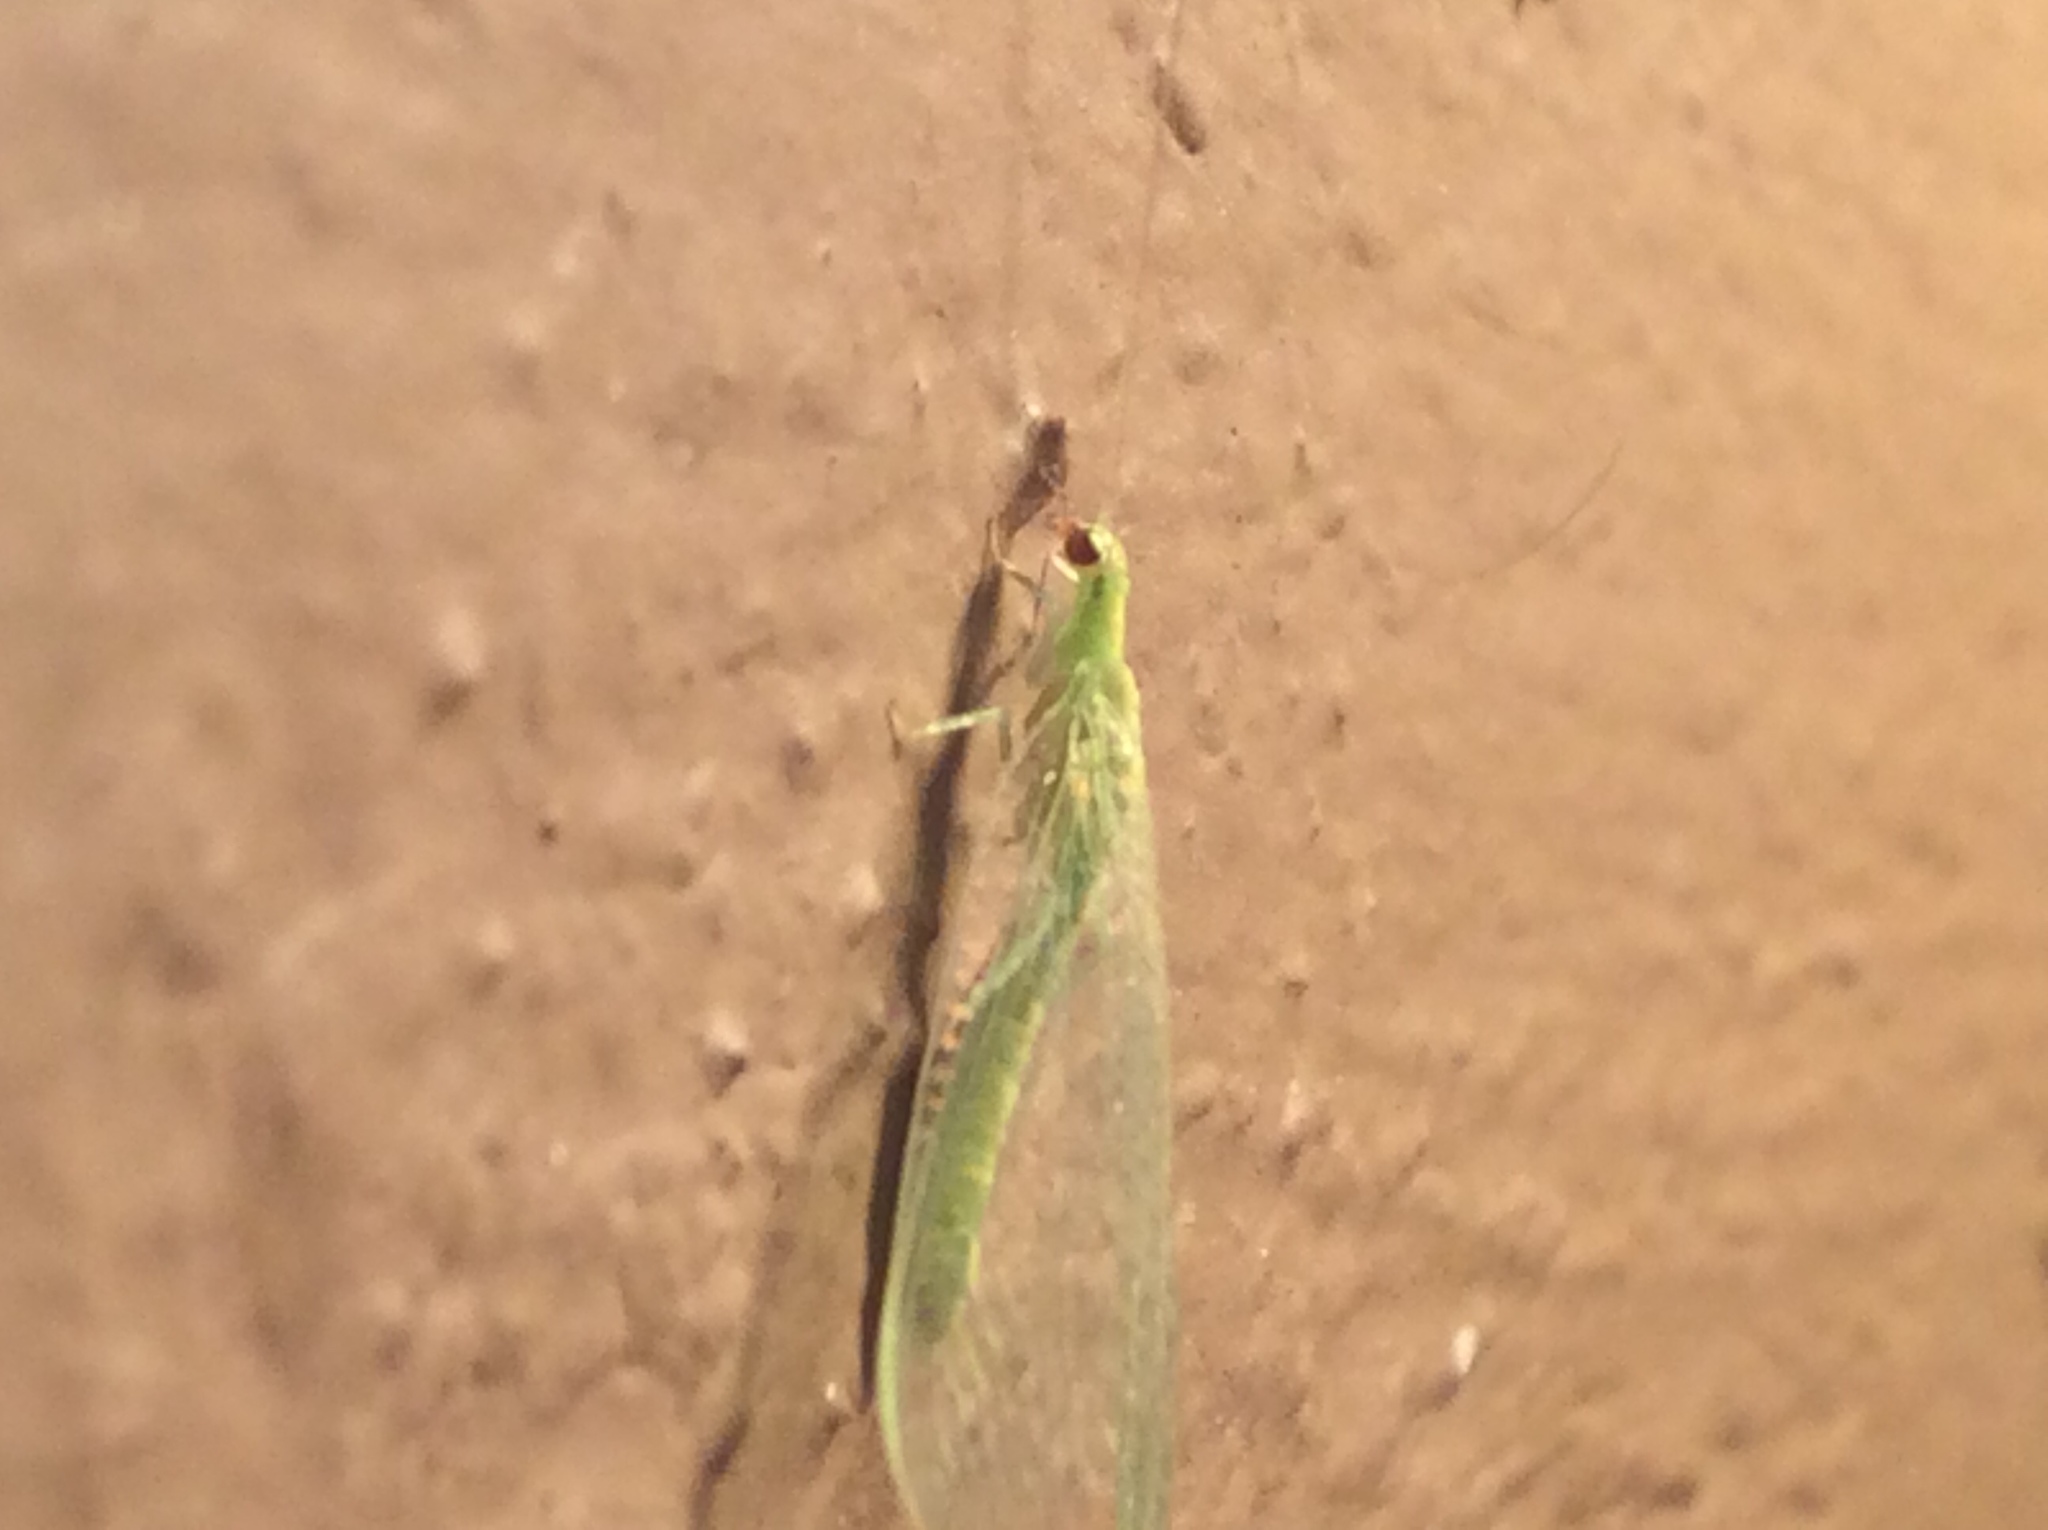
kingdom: Animalia
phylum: Arthropoda
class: Insecta
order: Neuroptera
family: Chrysopidae
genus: Chrysoperla
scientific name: Chrysoperla rufilabris
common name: Red-lipped green lacewing
